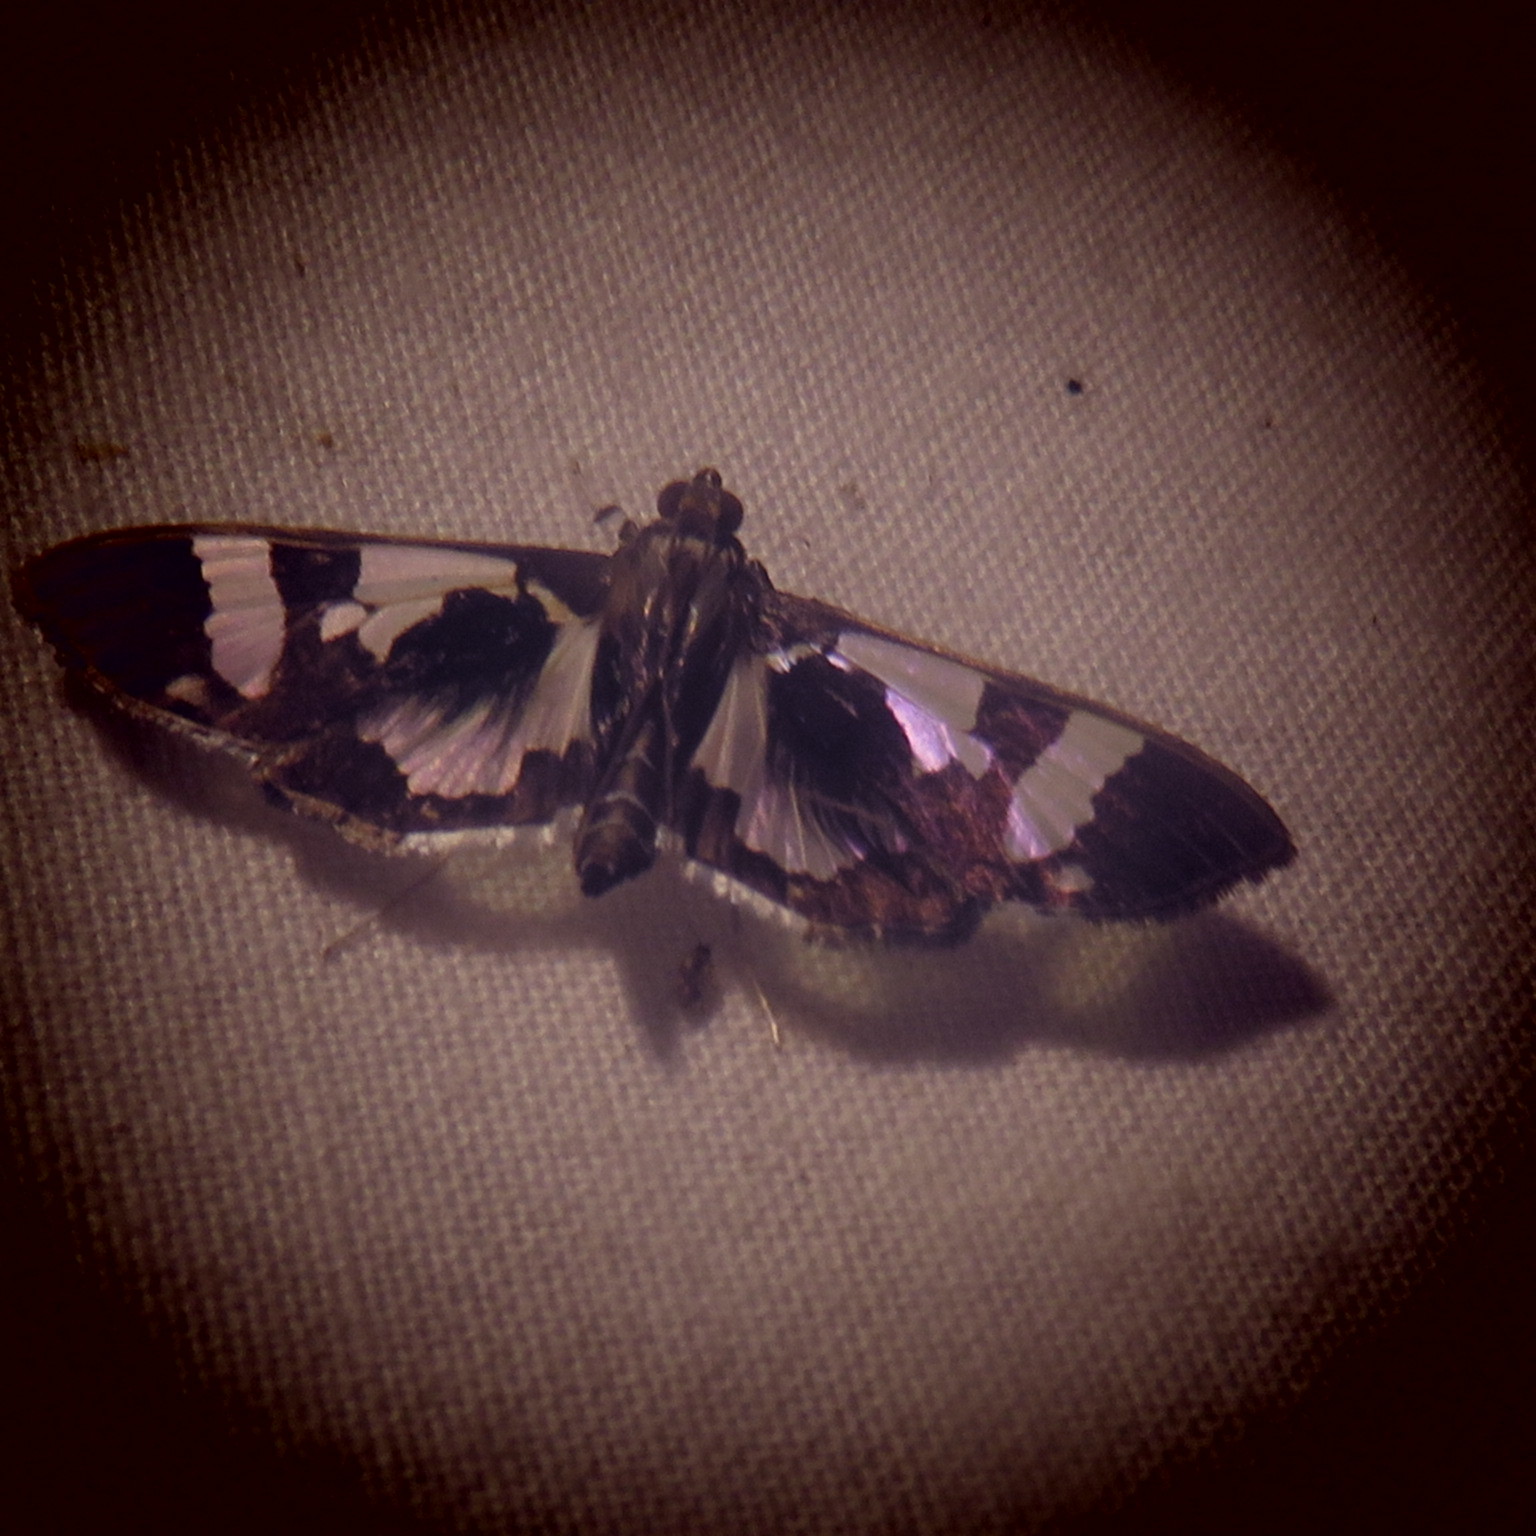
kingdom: Animalia
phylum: Arthropoda
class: Insecta
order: Lepidoptera
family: Crambidae
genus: Desmia
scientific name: Desmia bajulalis
